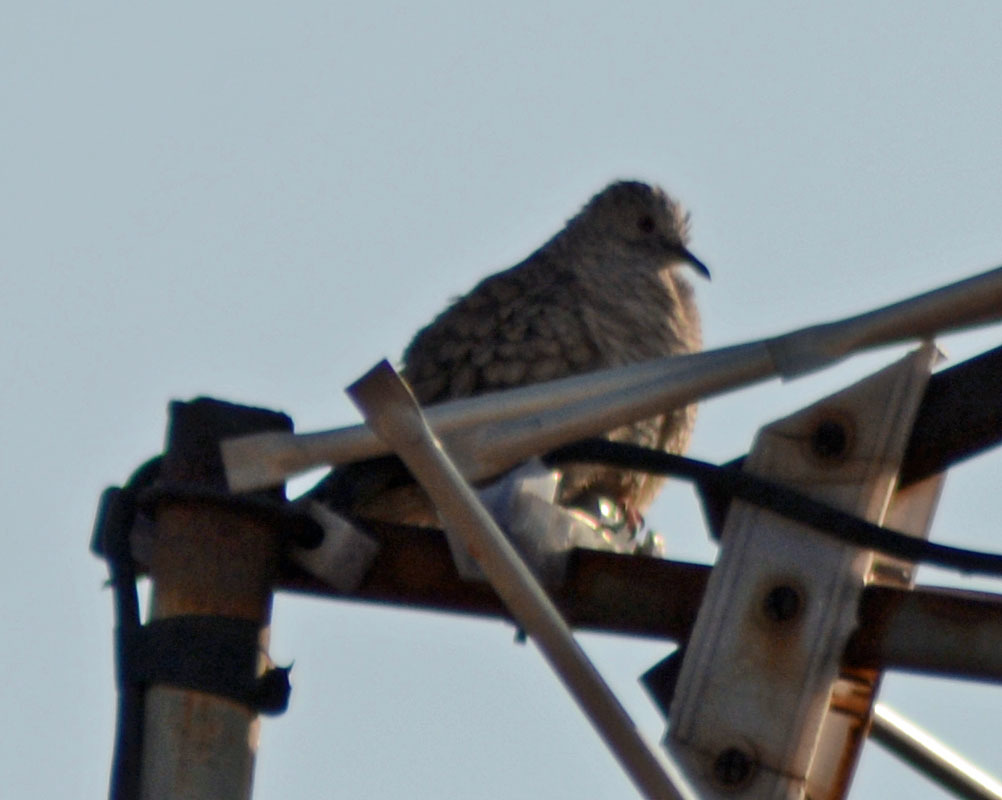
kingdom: Animalia
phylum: Chordata
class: Aves
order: Columbiformes
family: Columbidae
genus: Columbina
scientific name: Columbina inca
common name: Inca dove
